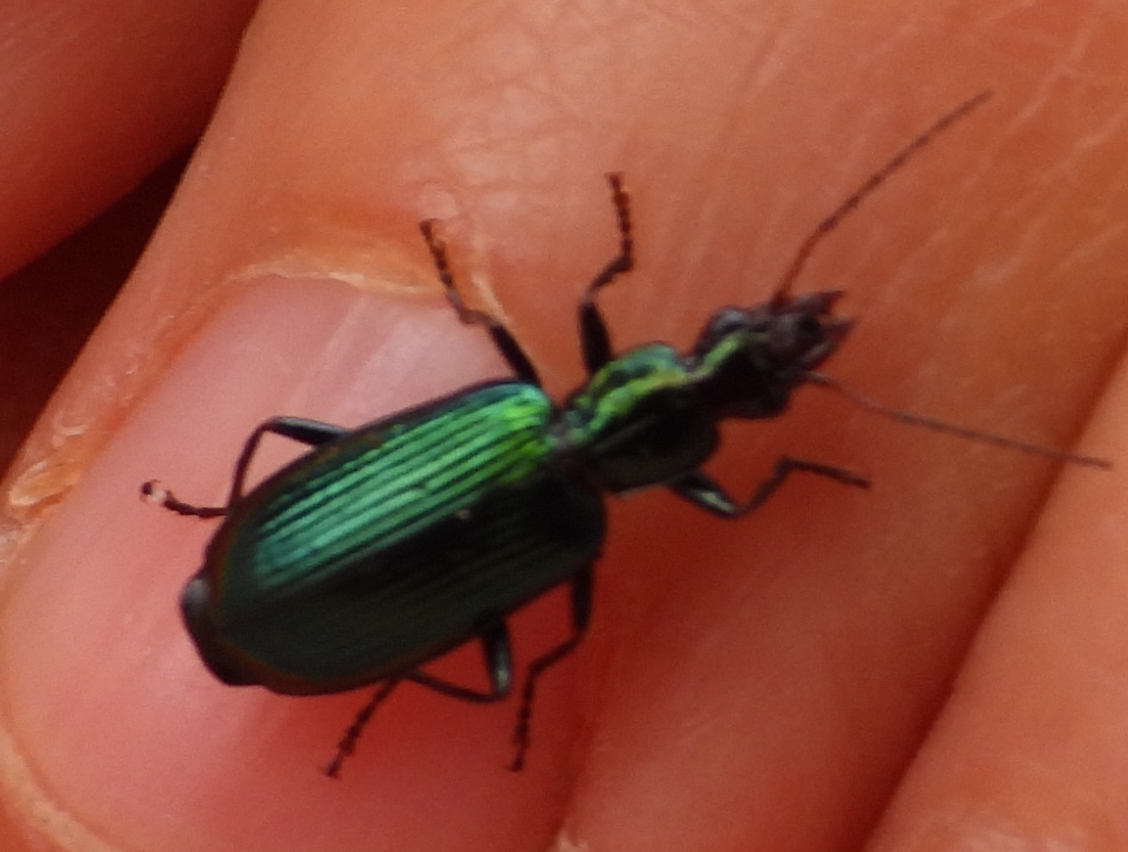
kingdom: Animalia
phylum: Arthropoda
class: Insecta
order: Coleoptera
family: Carabidae
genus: Calleida
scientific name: Calleida viridipennis
